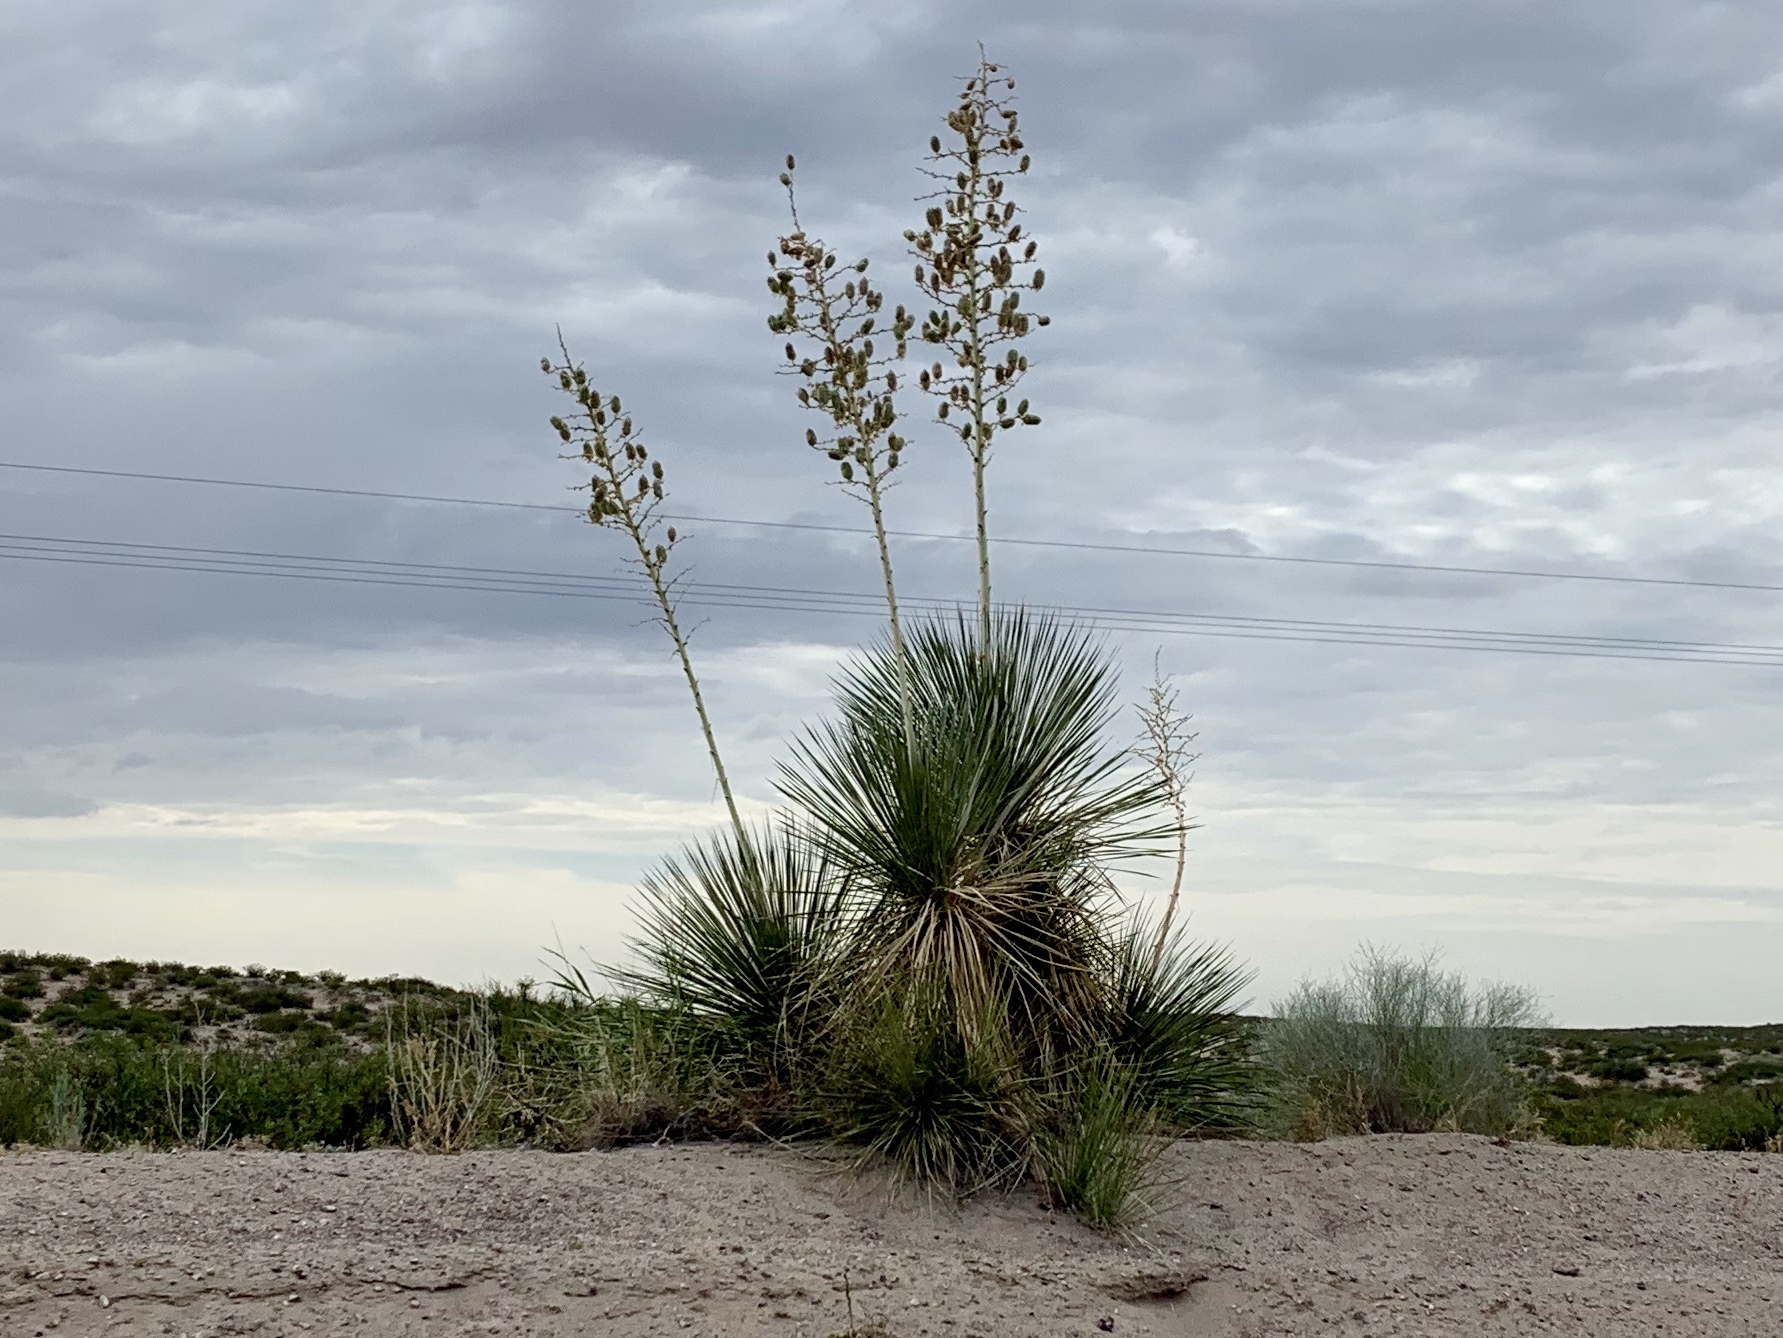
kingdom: Plantae
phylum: Tracheophyta
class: Liliopsida
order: Asparagales
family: Asparagaceae
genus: Yucca
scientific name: Yucca elata
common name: Palmella
